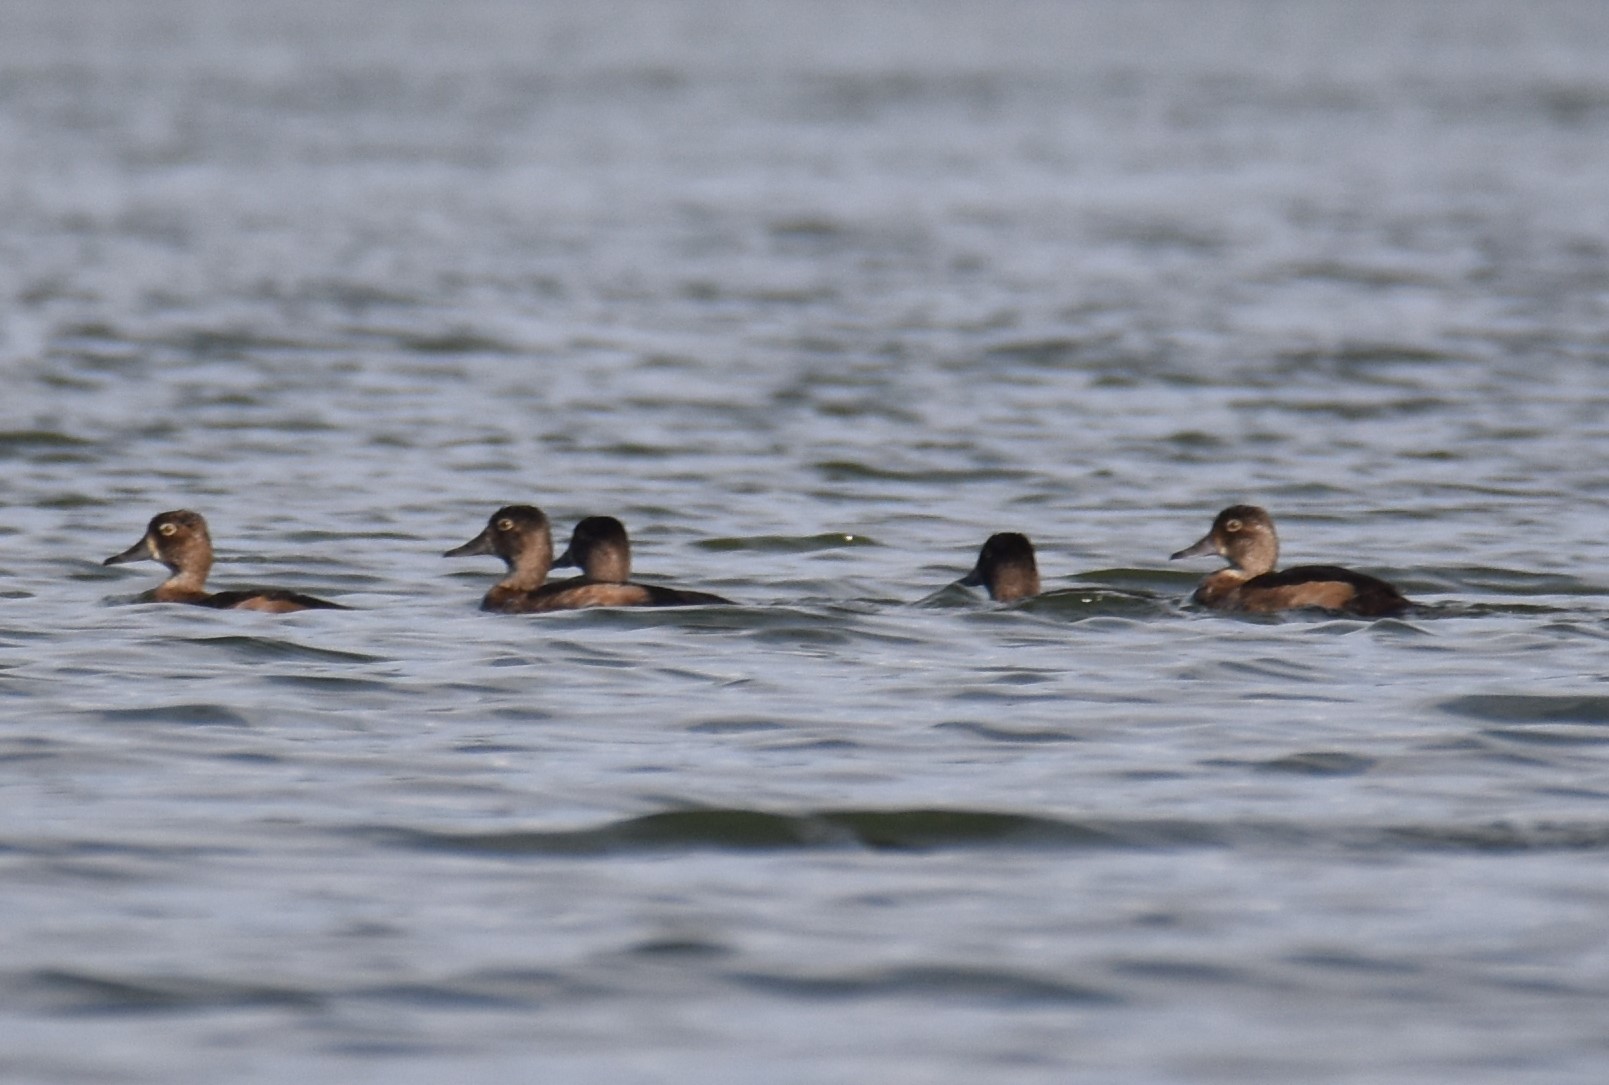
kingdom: Animalia
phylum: Chordata
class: Aves
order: Anseriformes
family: Anatidae
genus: Aythya
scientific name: Aythya collaris
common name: Ring-necked duck
